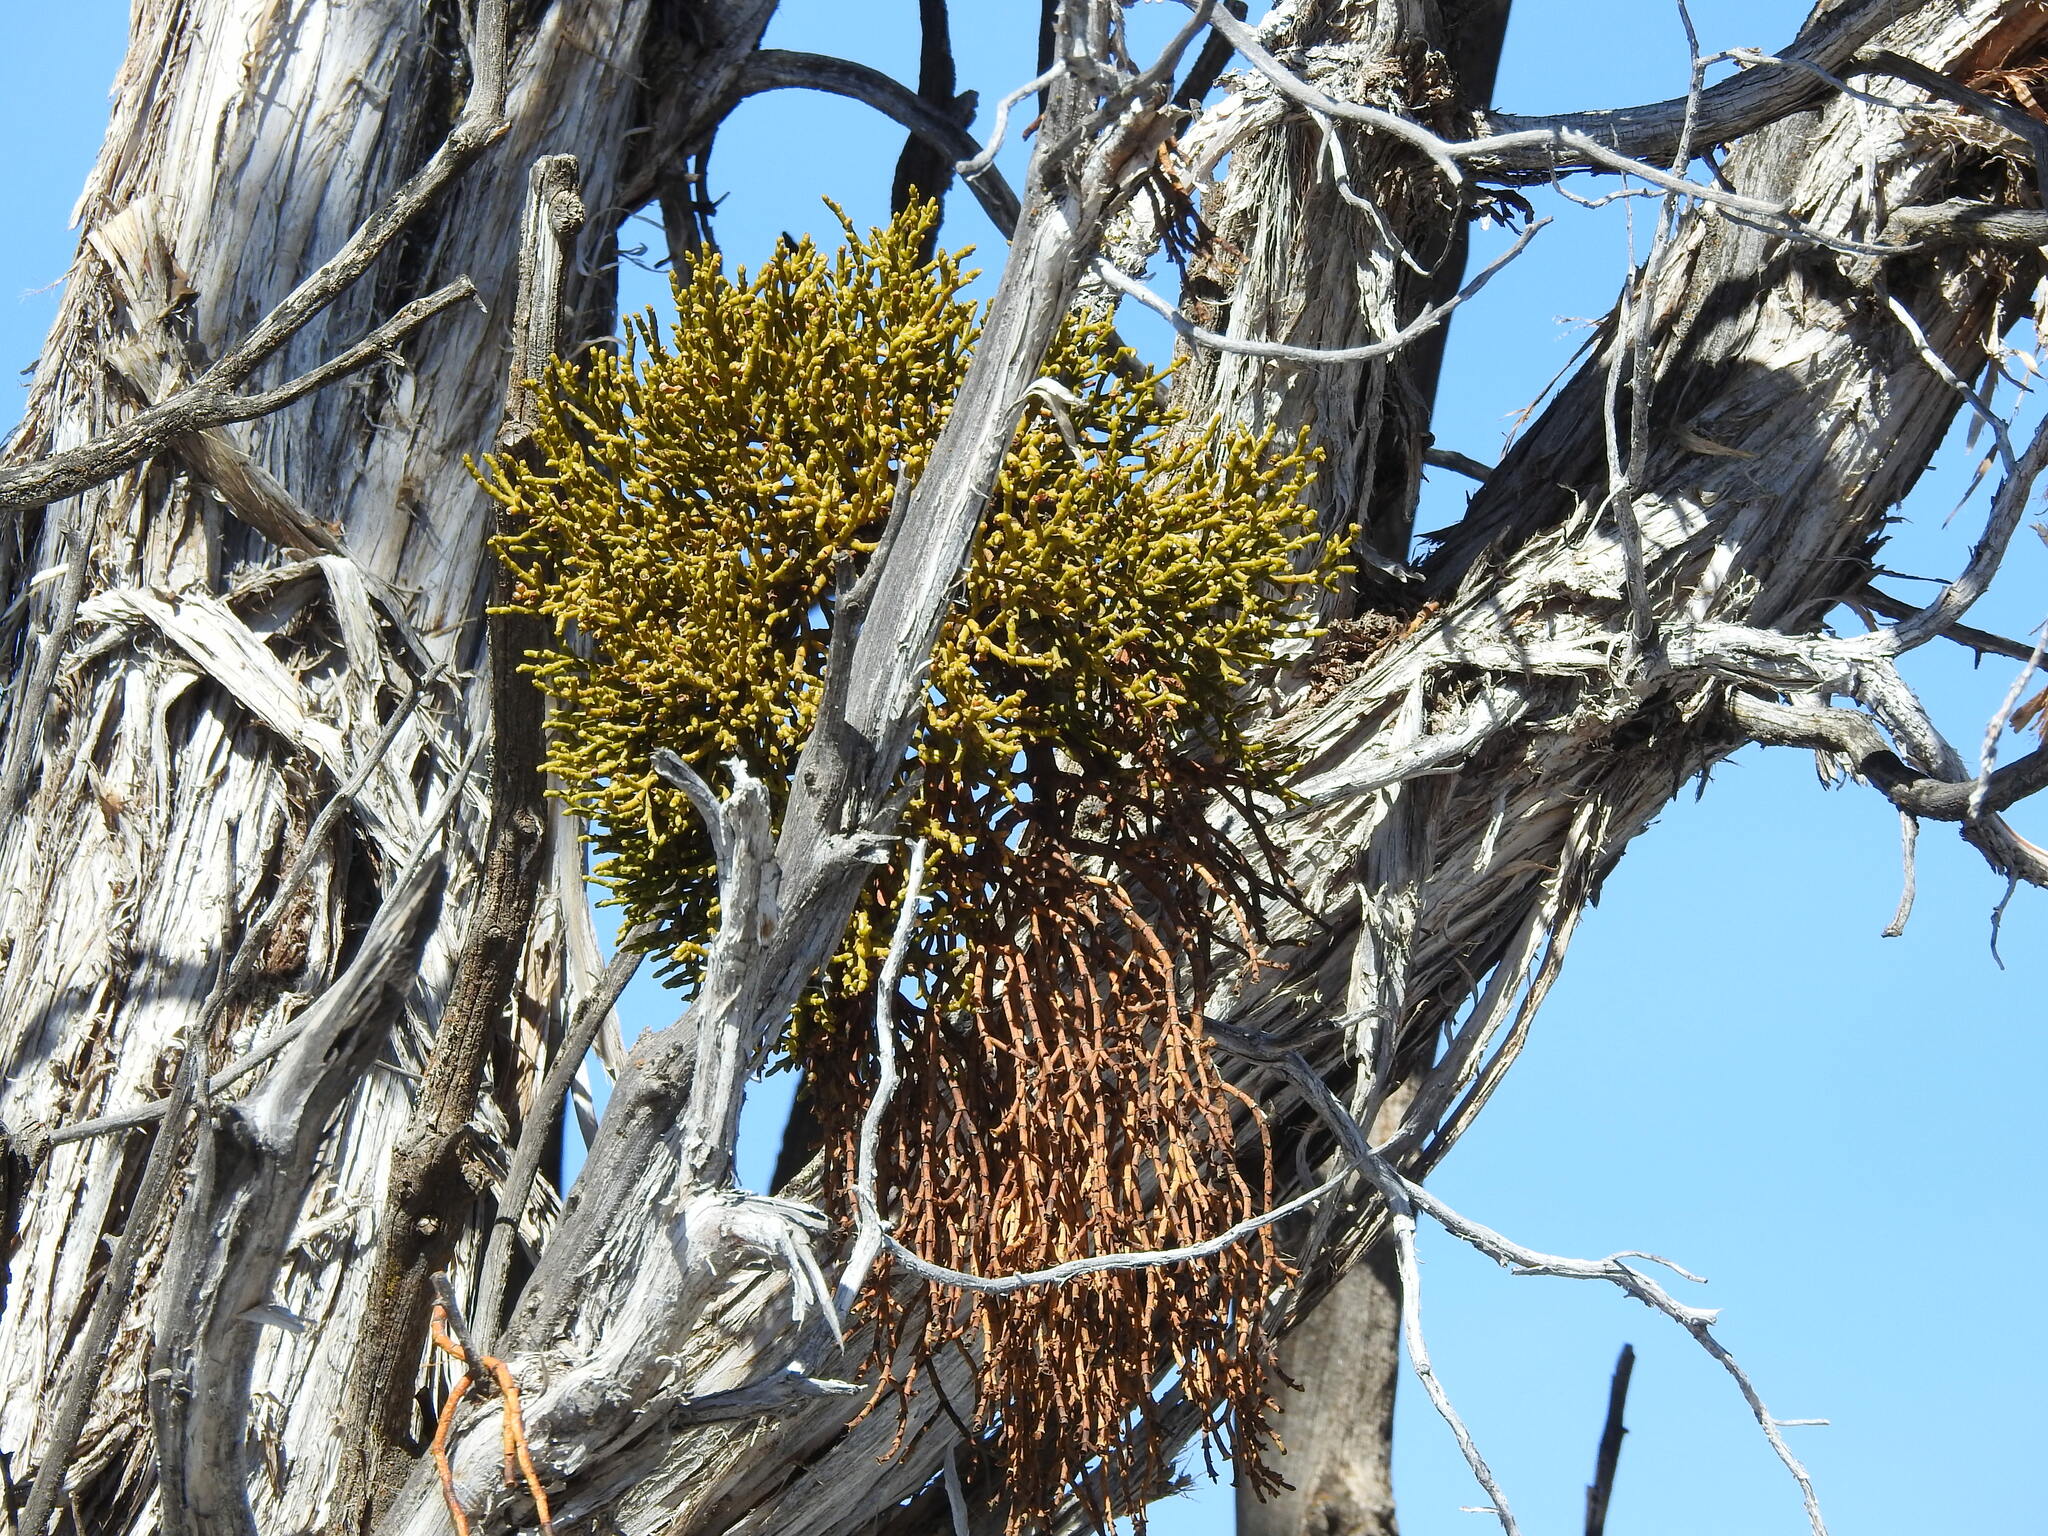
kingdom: Plantae
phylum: Tracheophyta
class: Magnoliopsida
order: Santalales
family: Viscaceae
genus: Phoradendron
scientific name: Phoradendron juniperinum
